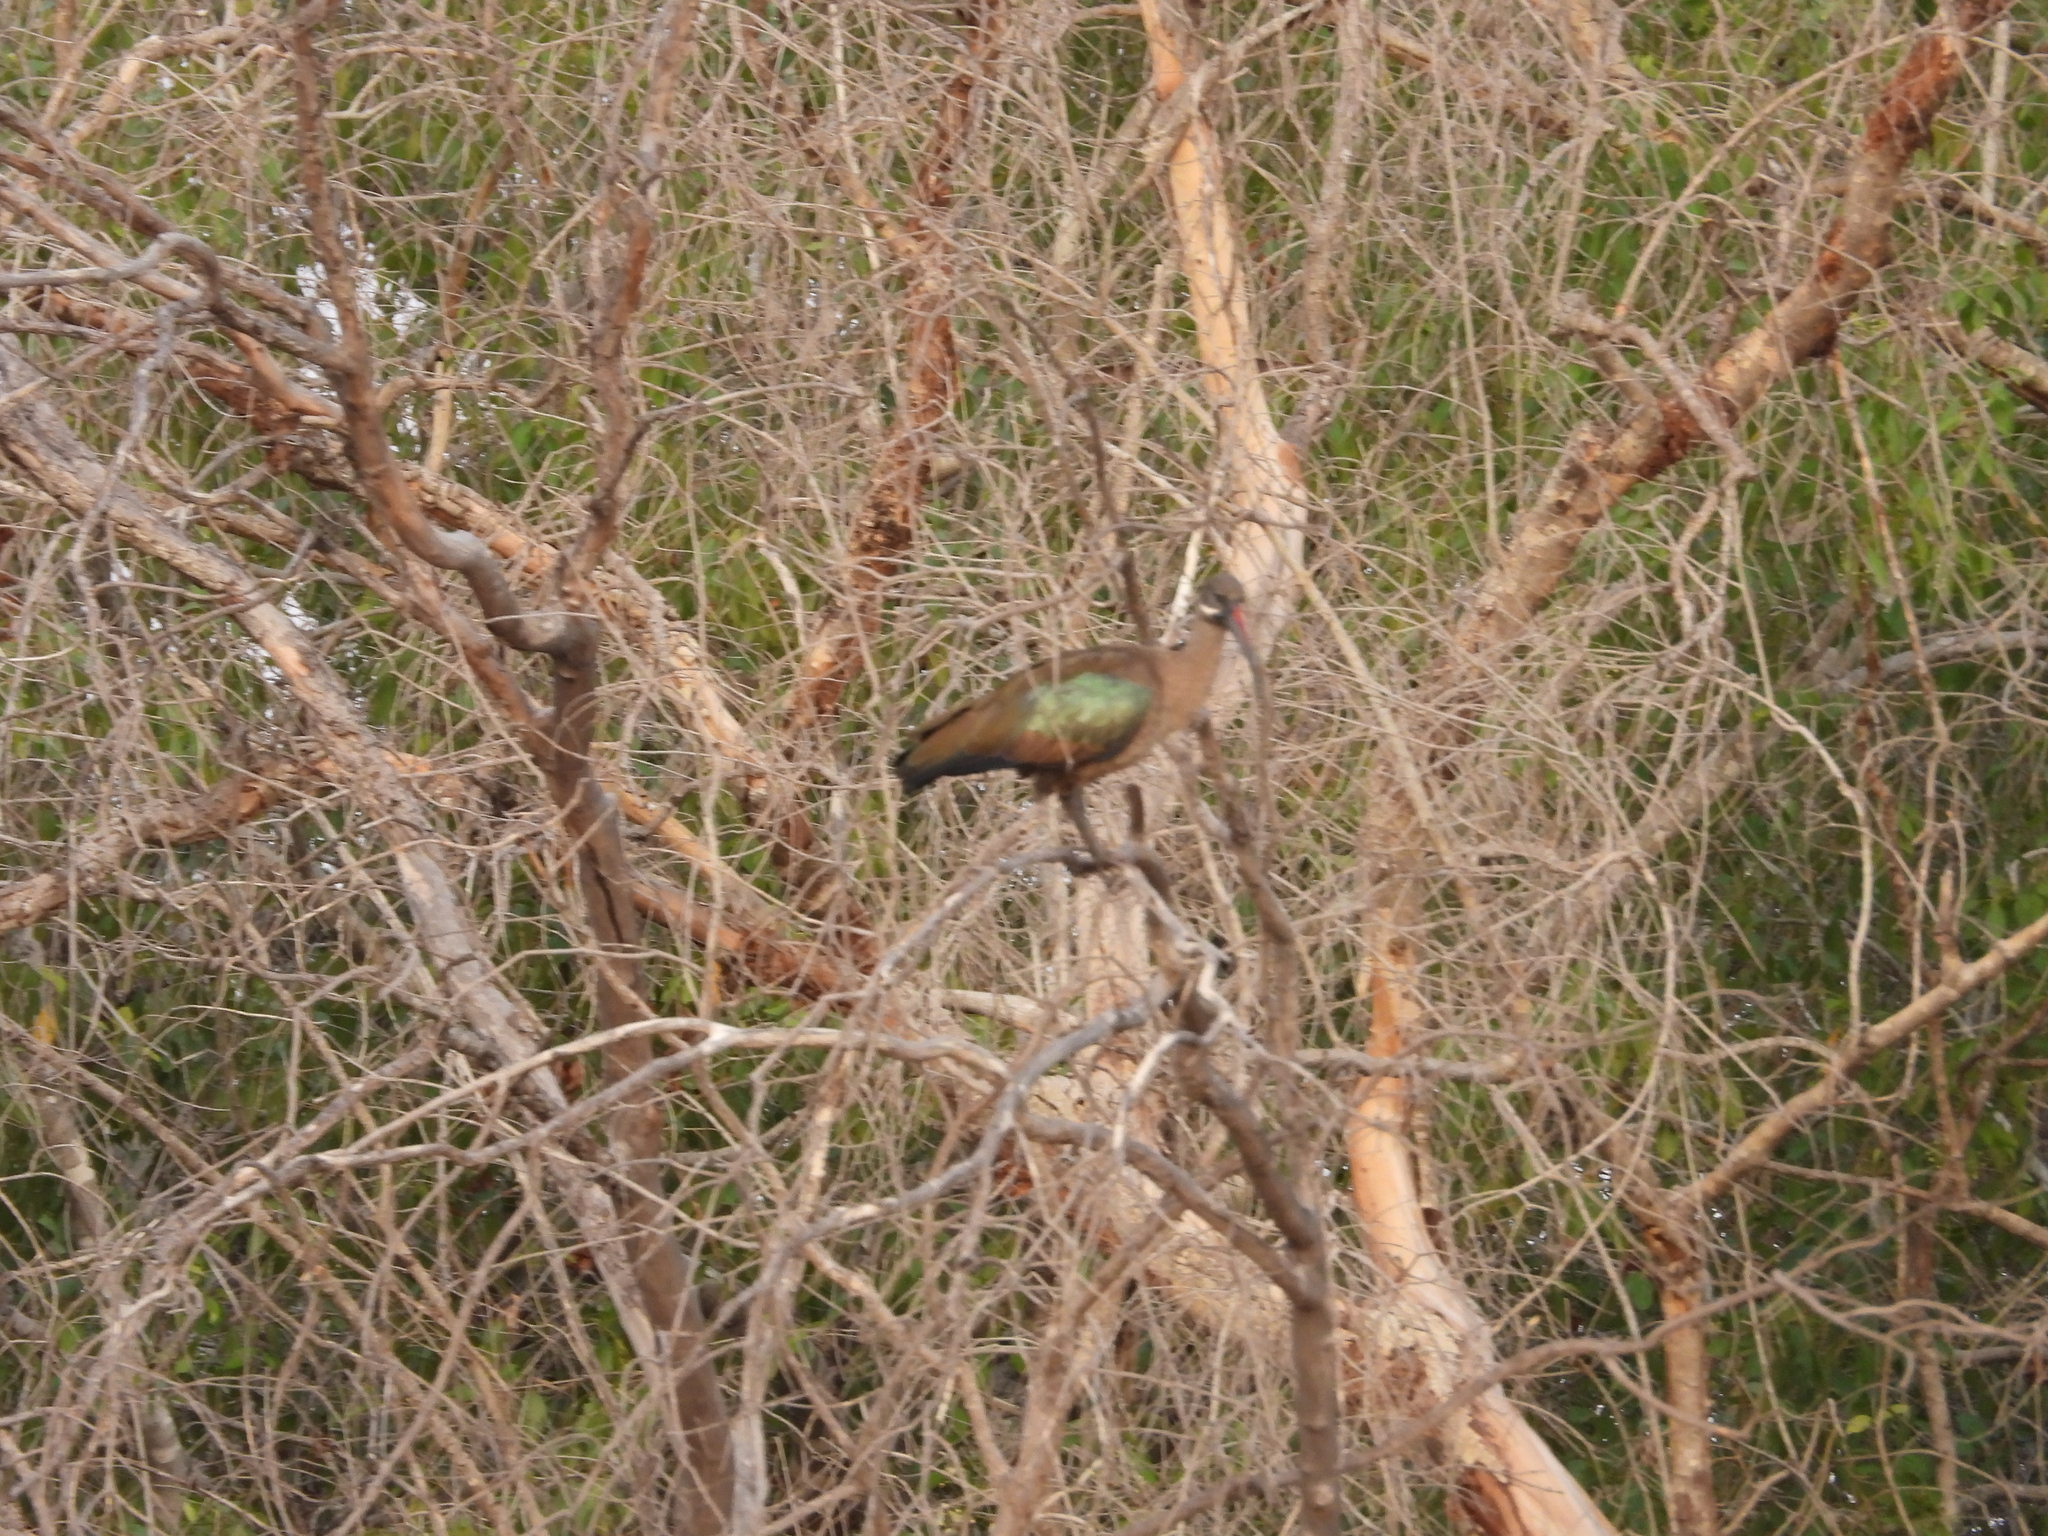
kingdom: Animalia
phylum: Chordata
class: Aves
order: Pelecaniformes
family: Threskiornithidae
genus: Bostrychia
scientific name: Bostrychia hagedash
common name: Hadada ibis
